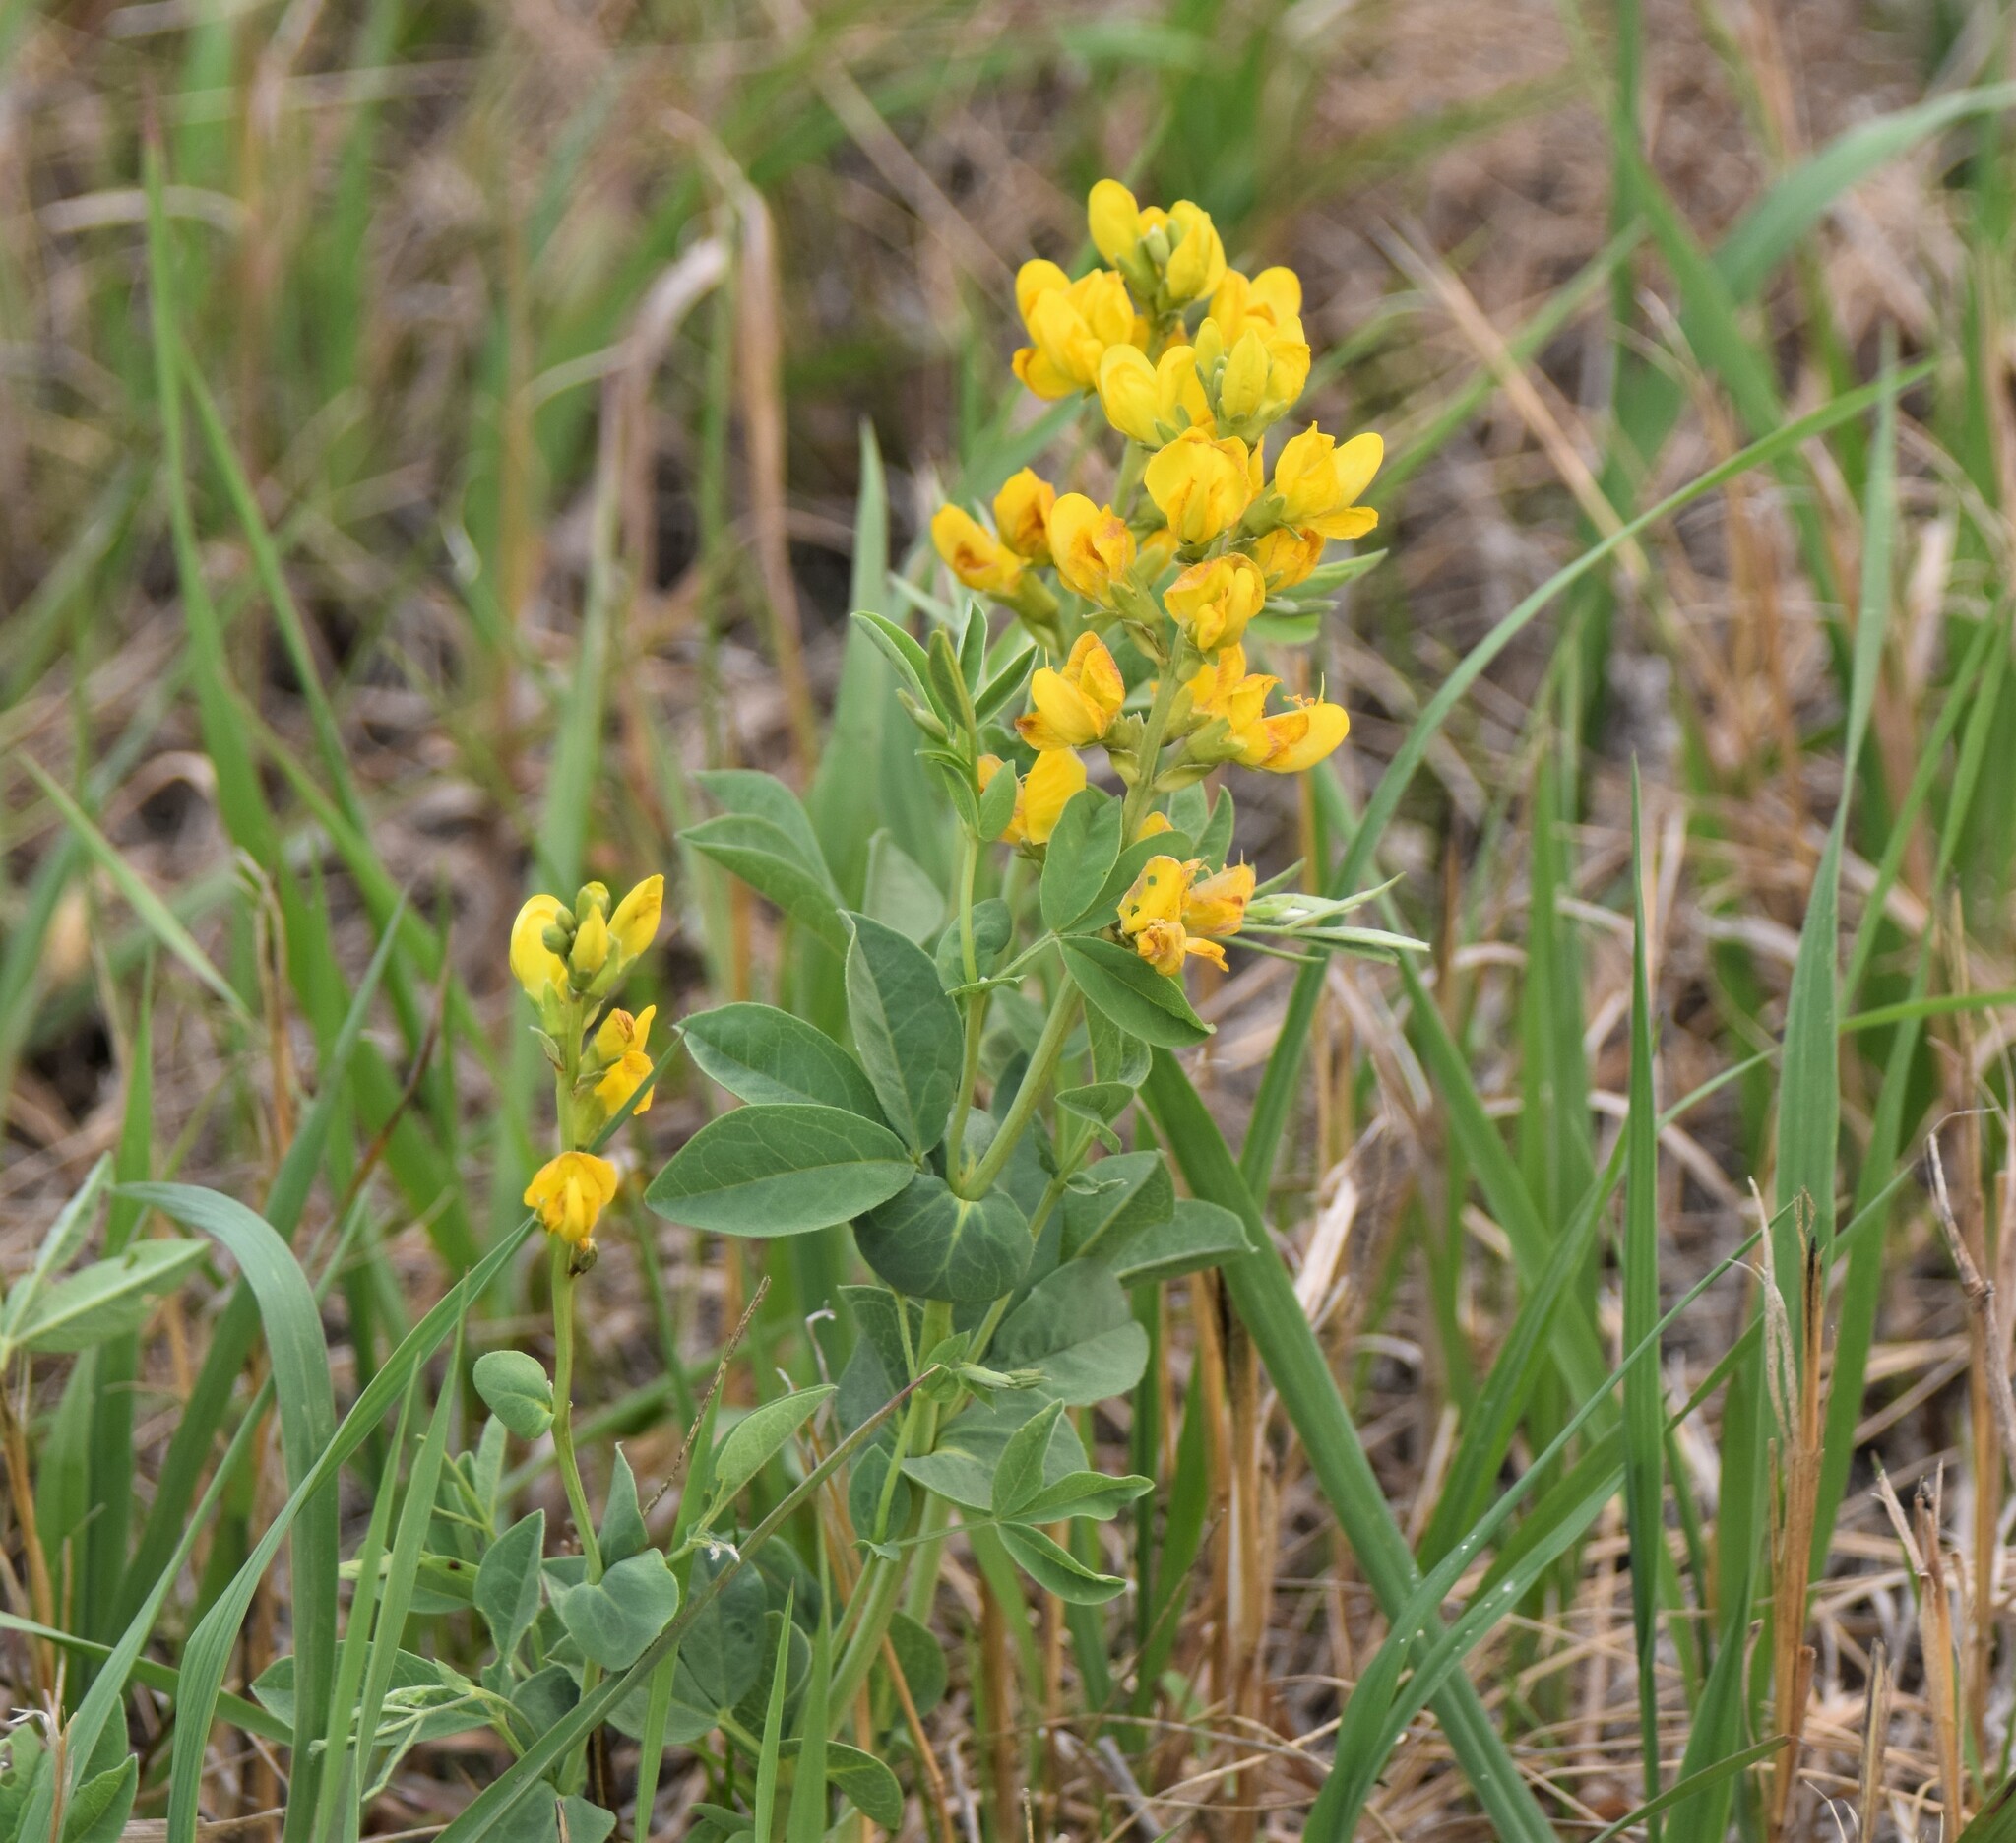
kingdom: Plantae
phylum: Tracheophyta
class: Magnoliopsida
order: Fabales
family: Fabaceae
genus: Thermopsis
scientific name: Thermopsis rhombifolia
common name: Circle-pod-pea
